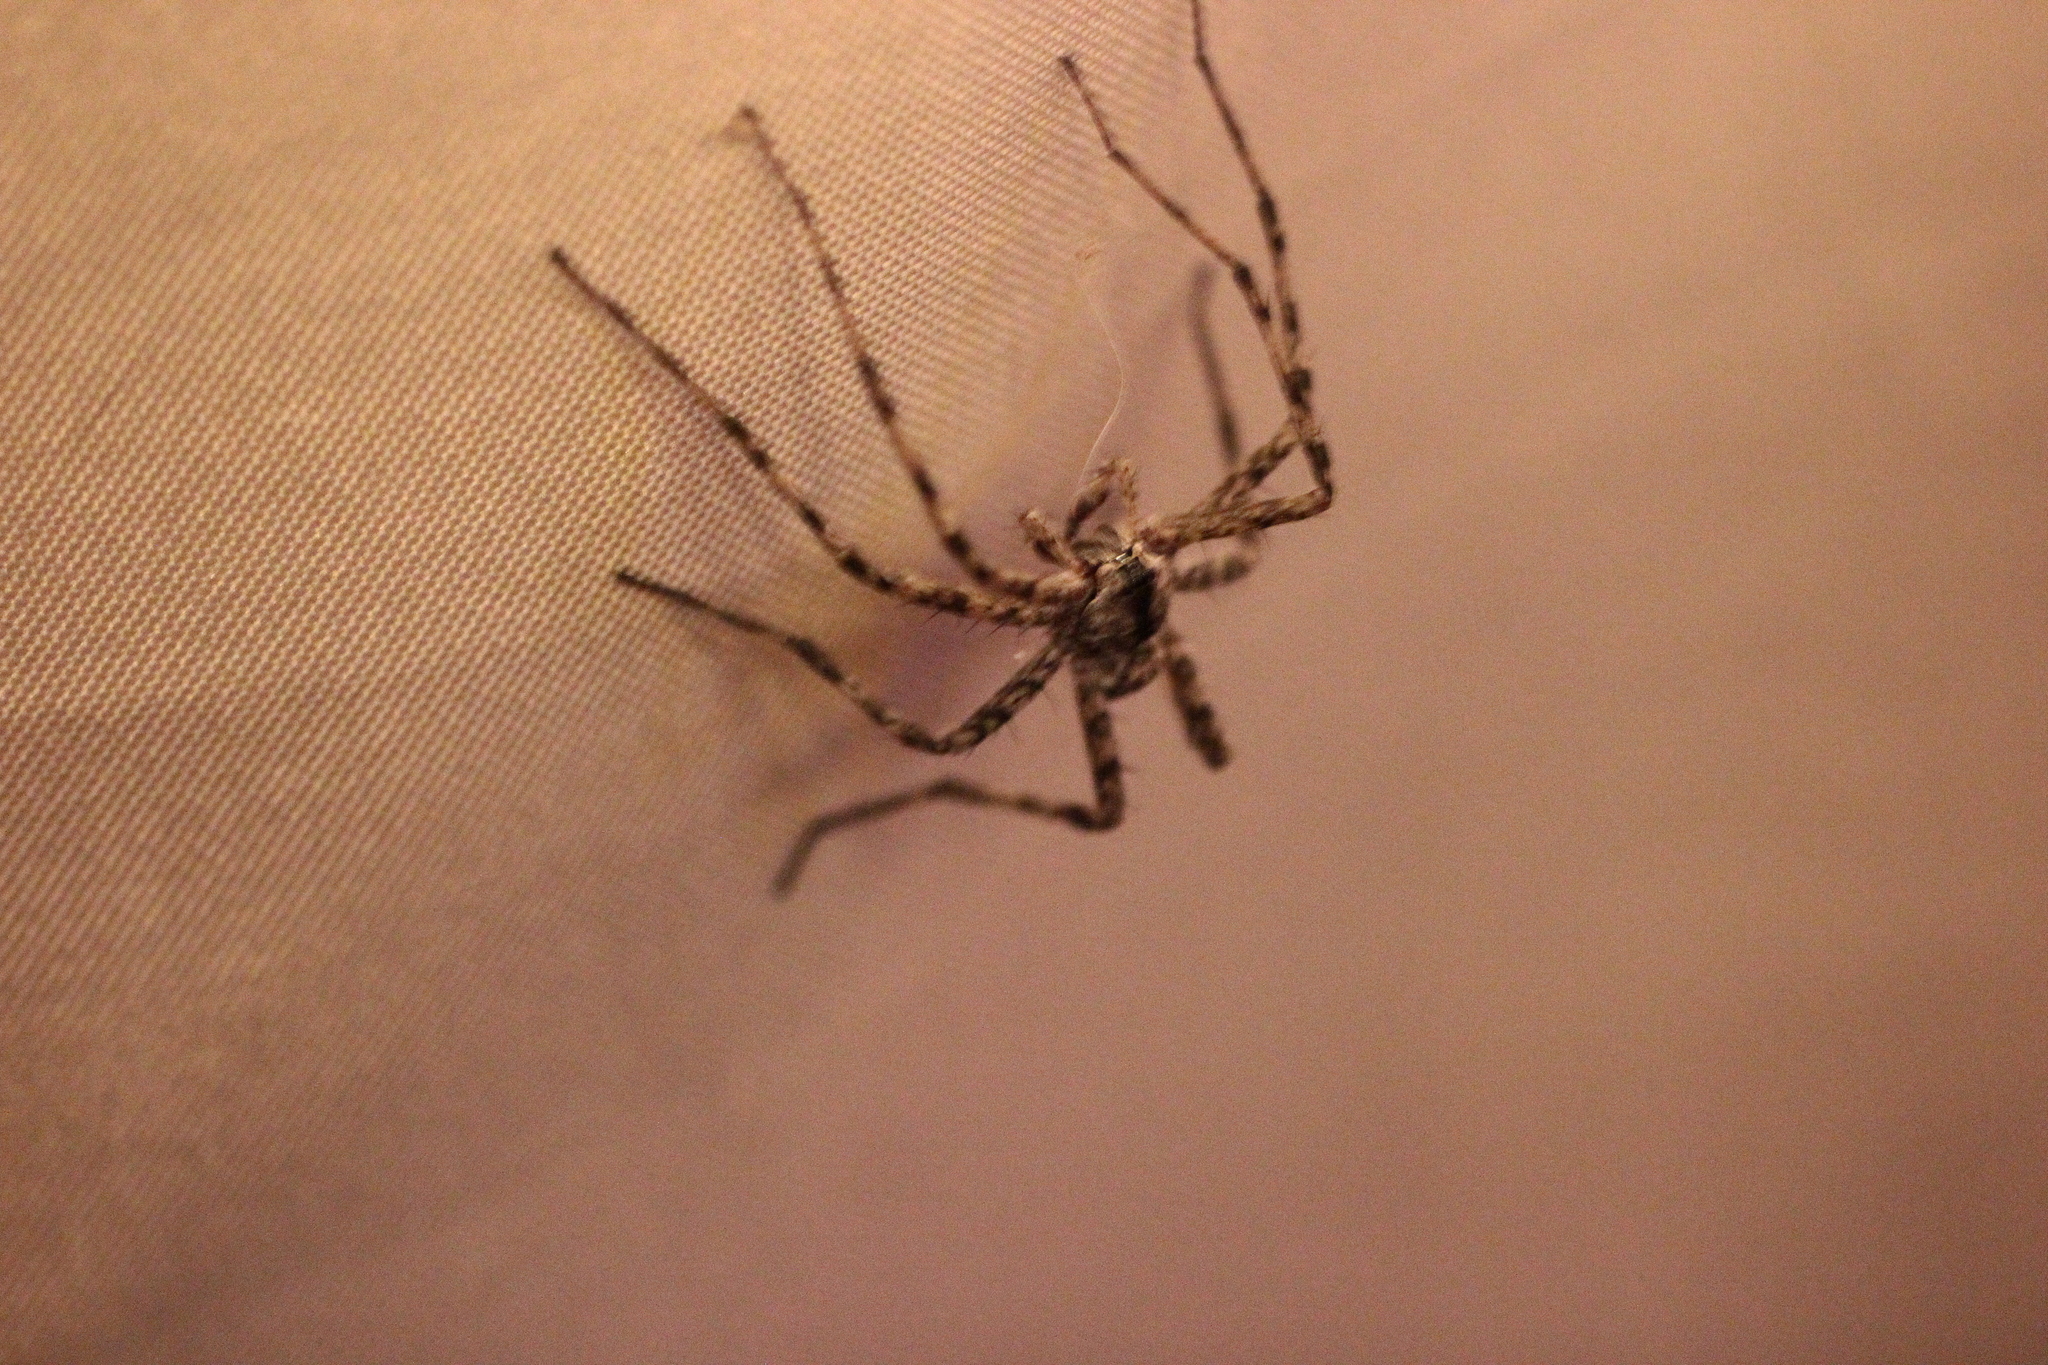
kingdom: Animalia
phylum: Arthropoda
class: Arachnida
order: Araneae
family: Pisauridae
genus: Dolomedes
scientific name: Dolomedes albineus
